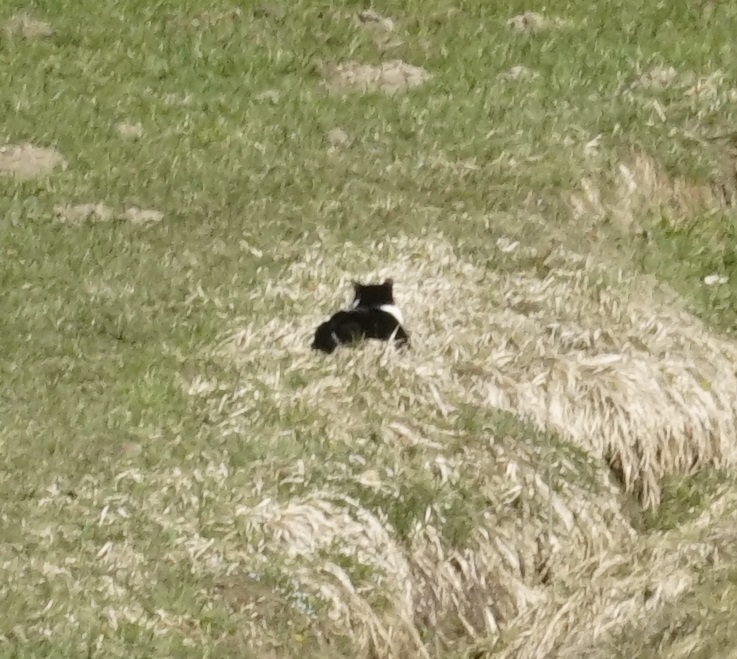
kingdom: Animalia
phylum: Chordata
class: Mammalia
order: Carnivora
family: Felidae
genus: Felis
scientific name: Felis catus
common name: Domestic cat
